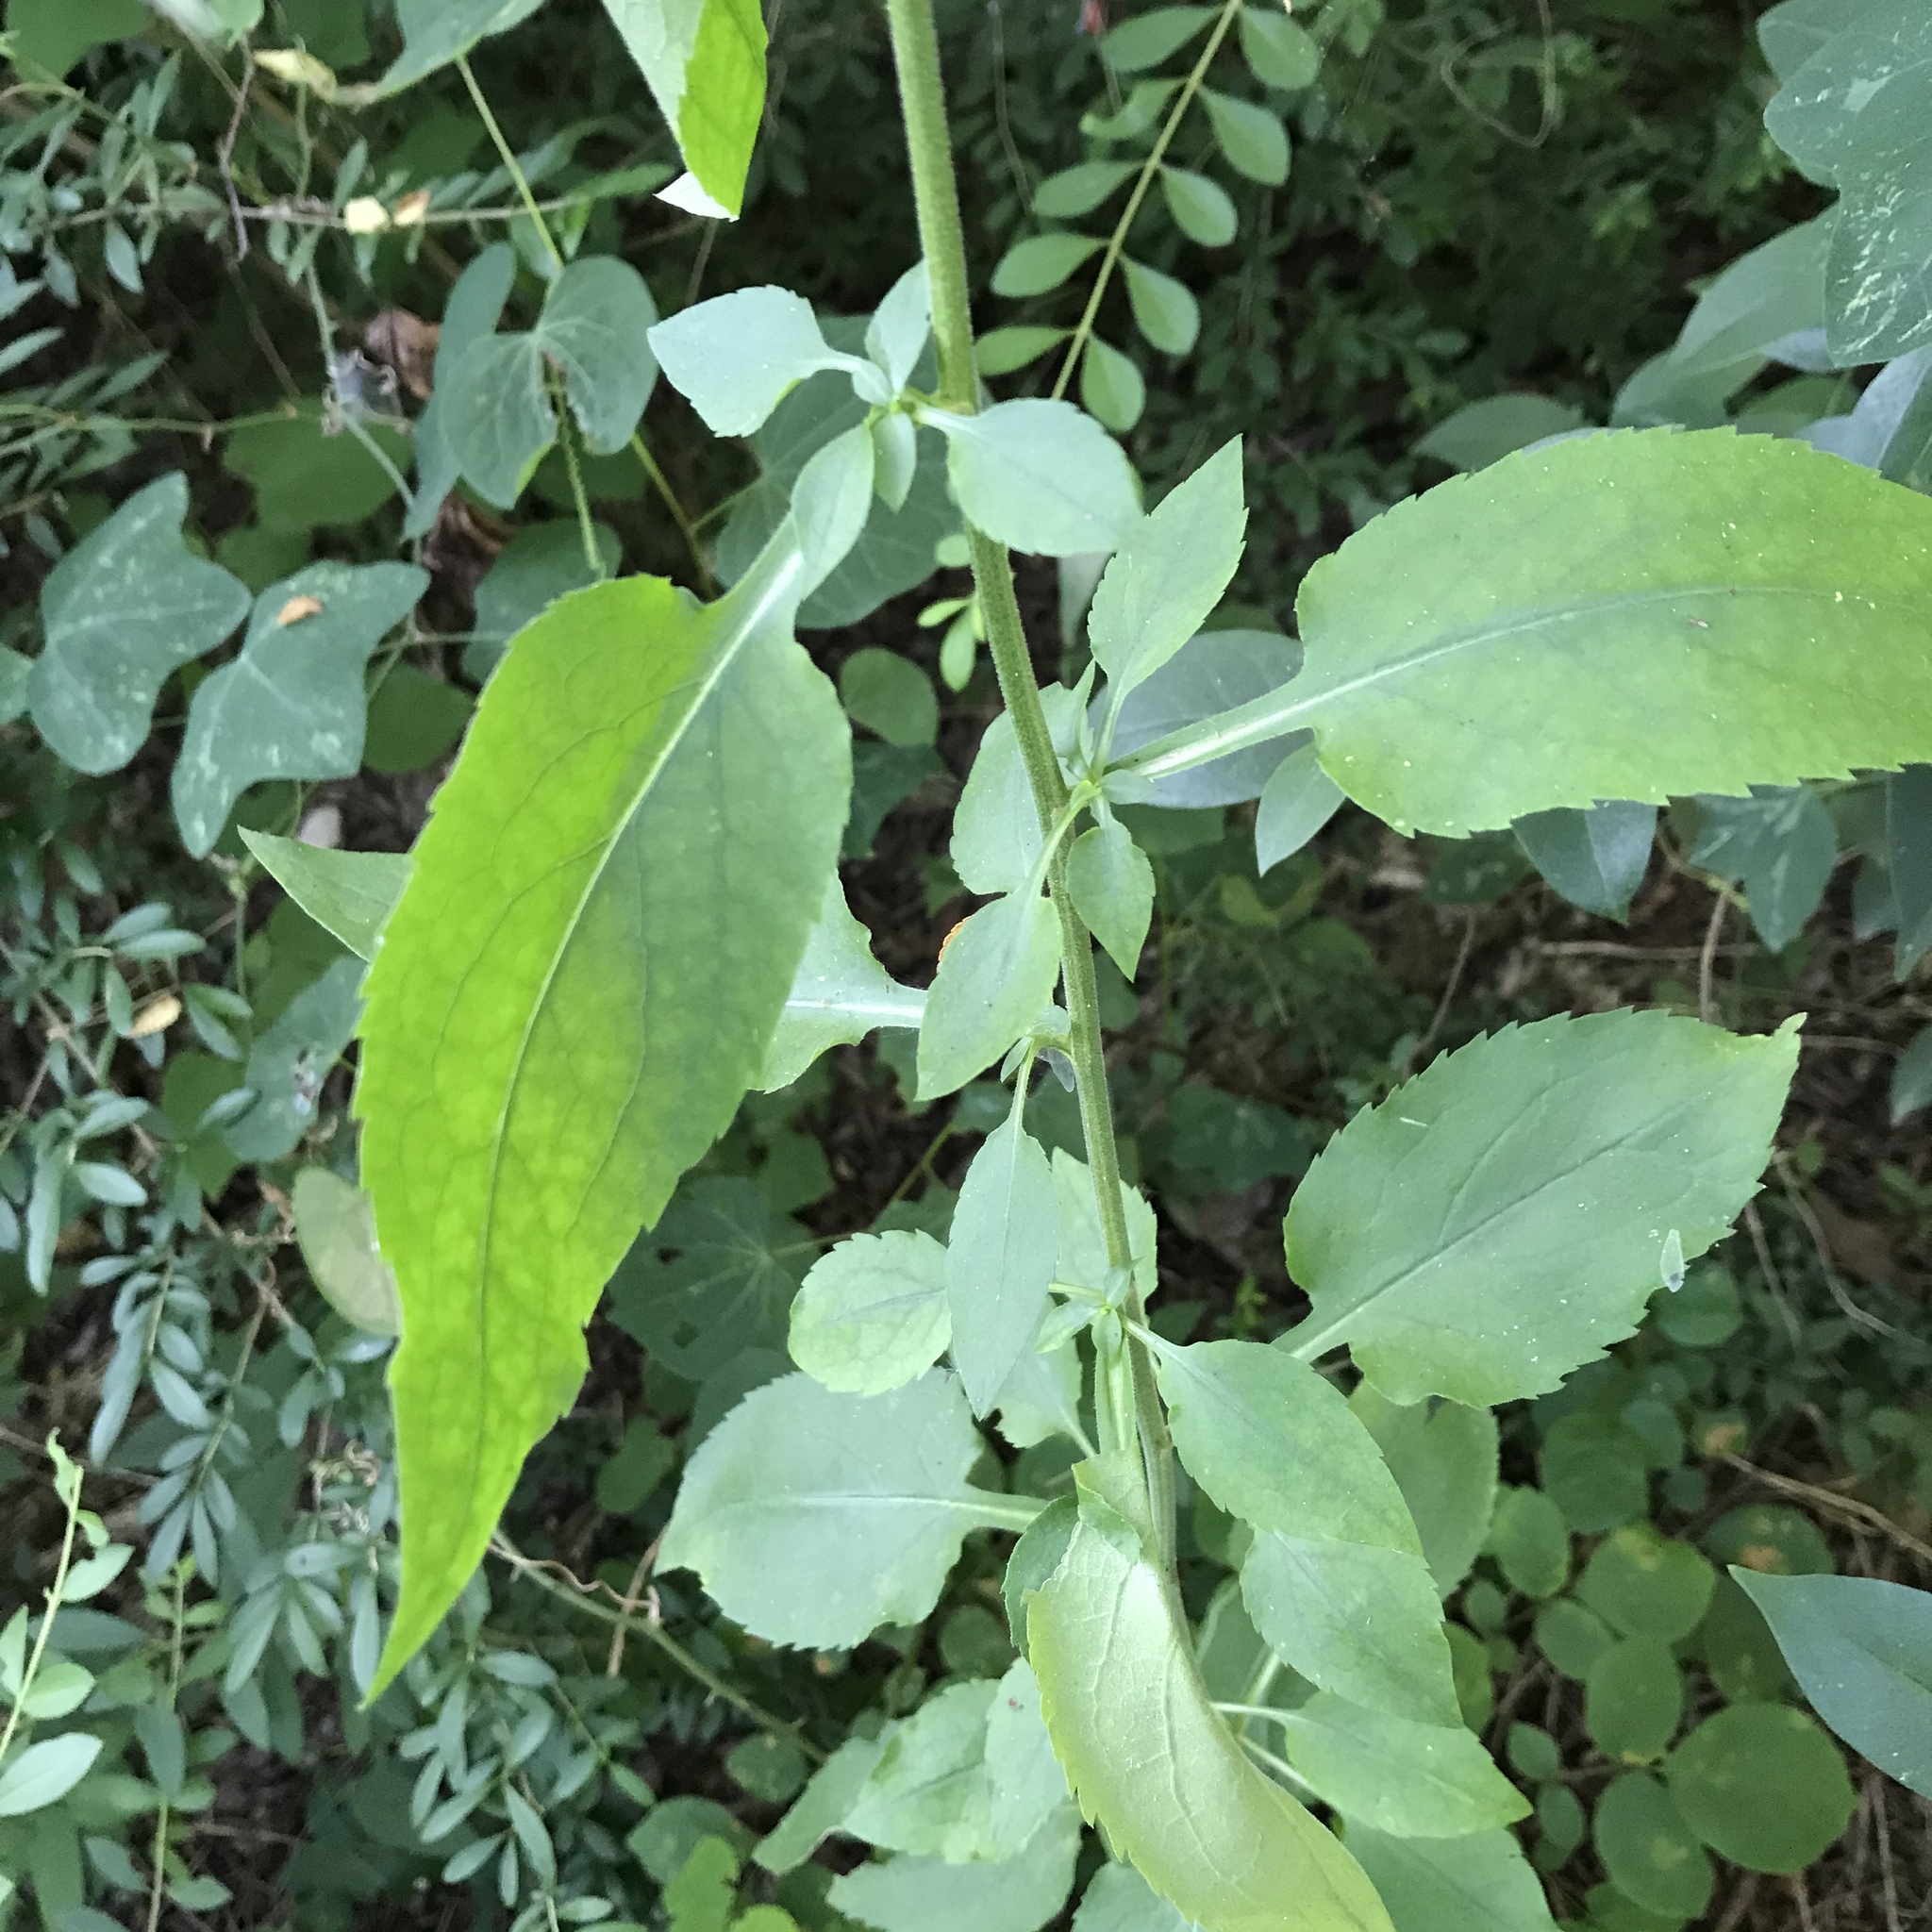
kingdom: Plantae
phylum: Tracheophyta
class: Magnoliopsida
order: Asterales
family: Asteraceae
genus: Symphyotrichum
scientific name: Symphyotrichum drummondii
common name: Drummond's aster
